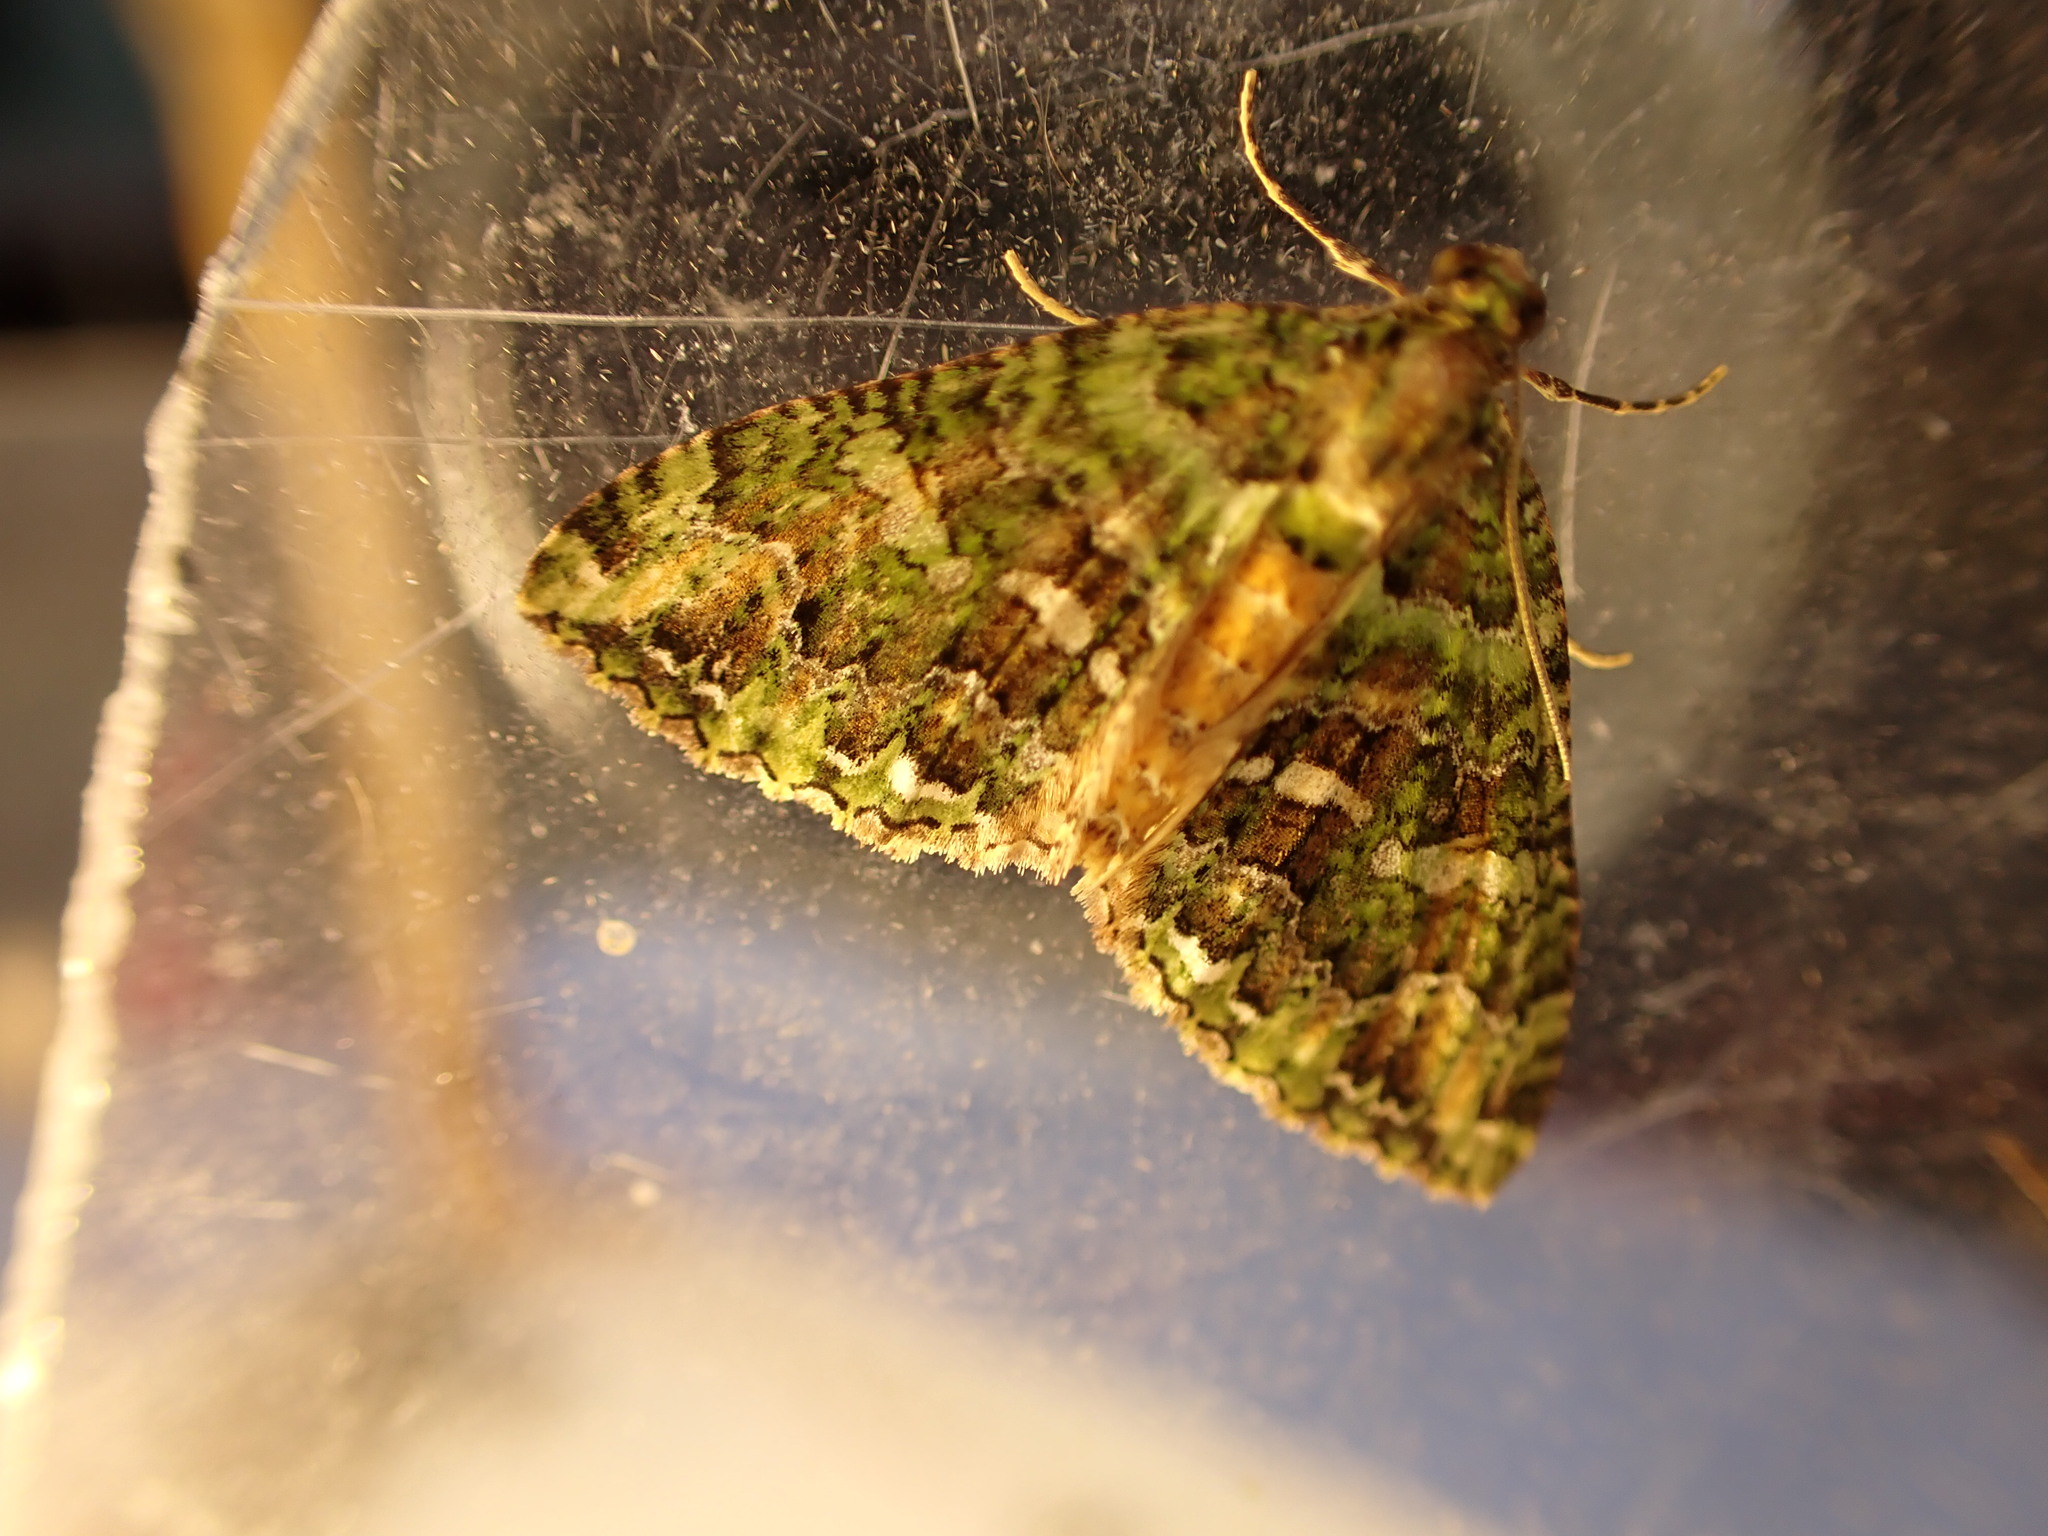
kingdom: Animalia
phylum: Arthropoda
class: Insecta
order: Lepidoptera
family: Geometridae
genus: Austrocidaria
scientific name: Austrocidaria similata
